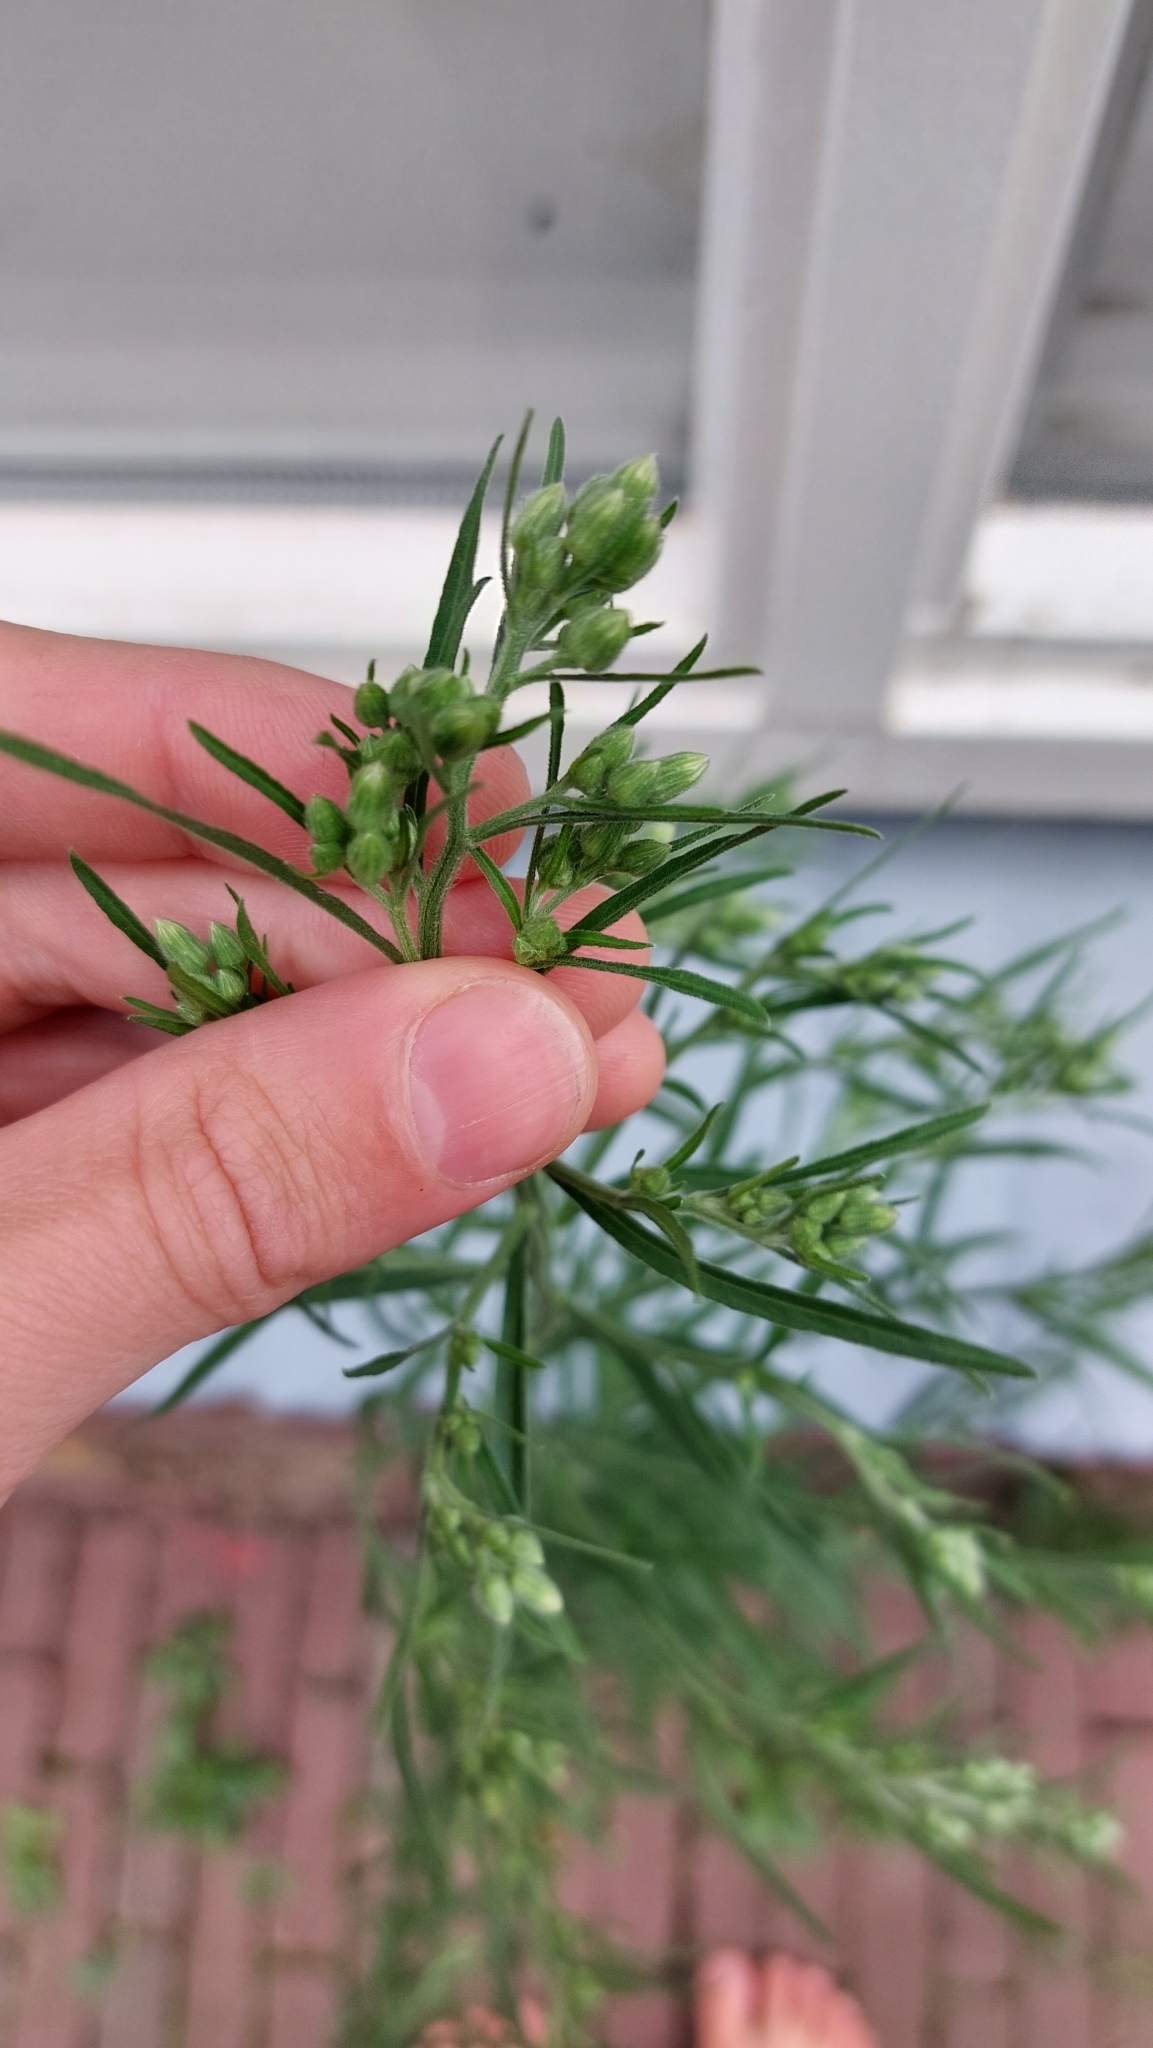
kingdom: Plantae
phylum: Tracheophyta
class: Magnoliopsida
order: Asterales
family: Asteraceae
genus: Erigeron
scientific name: Erigeron canadensis
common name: Canadian fleabane
